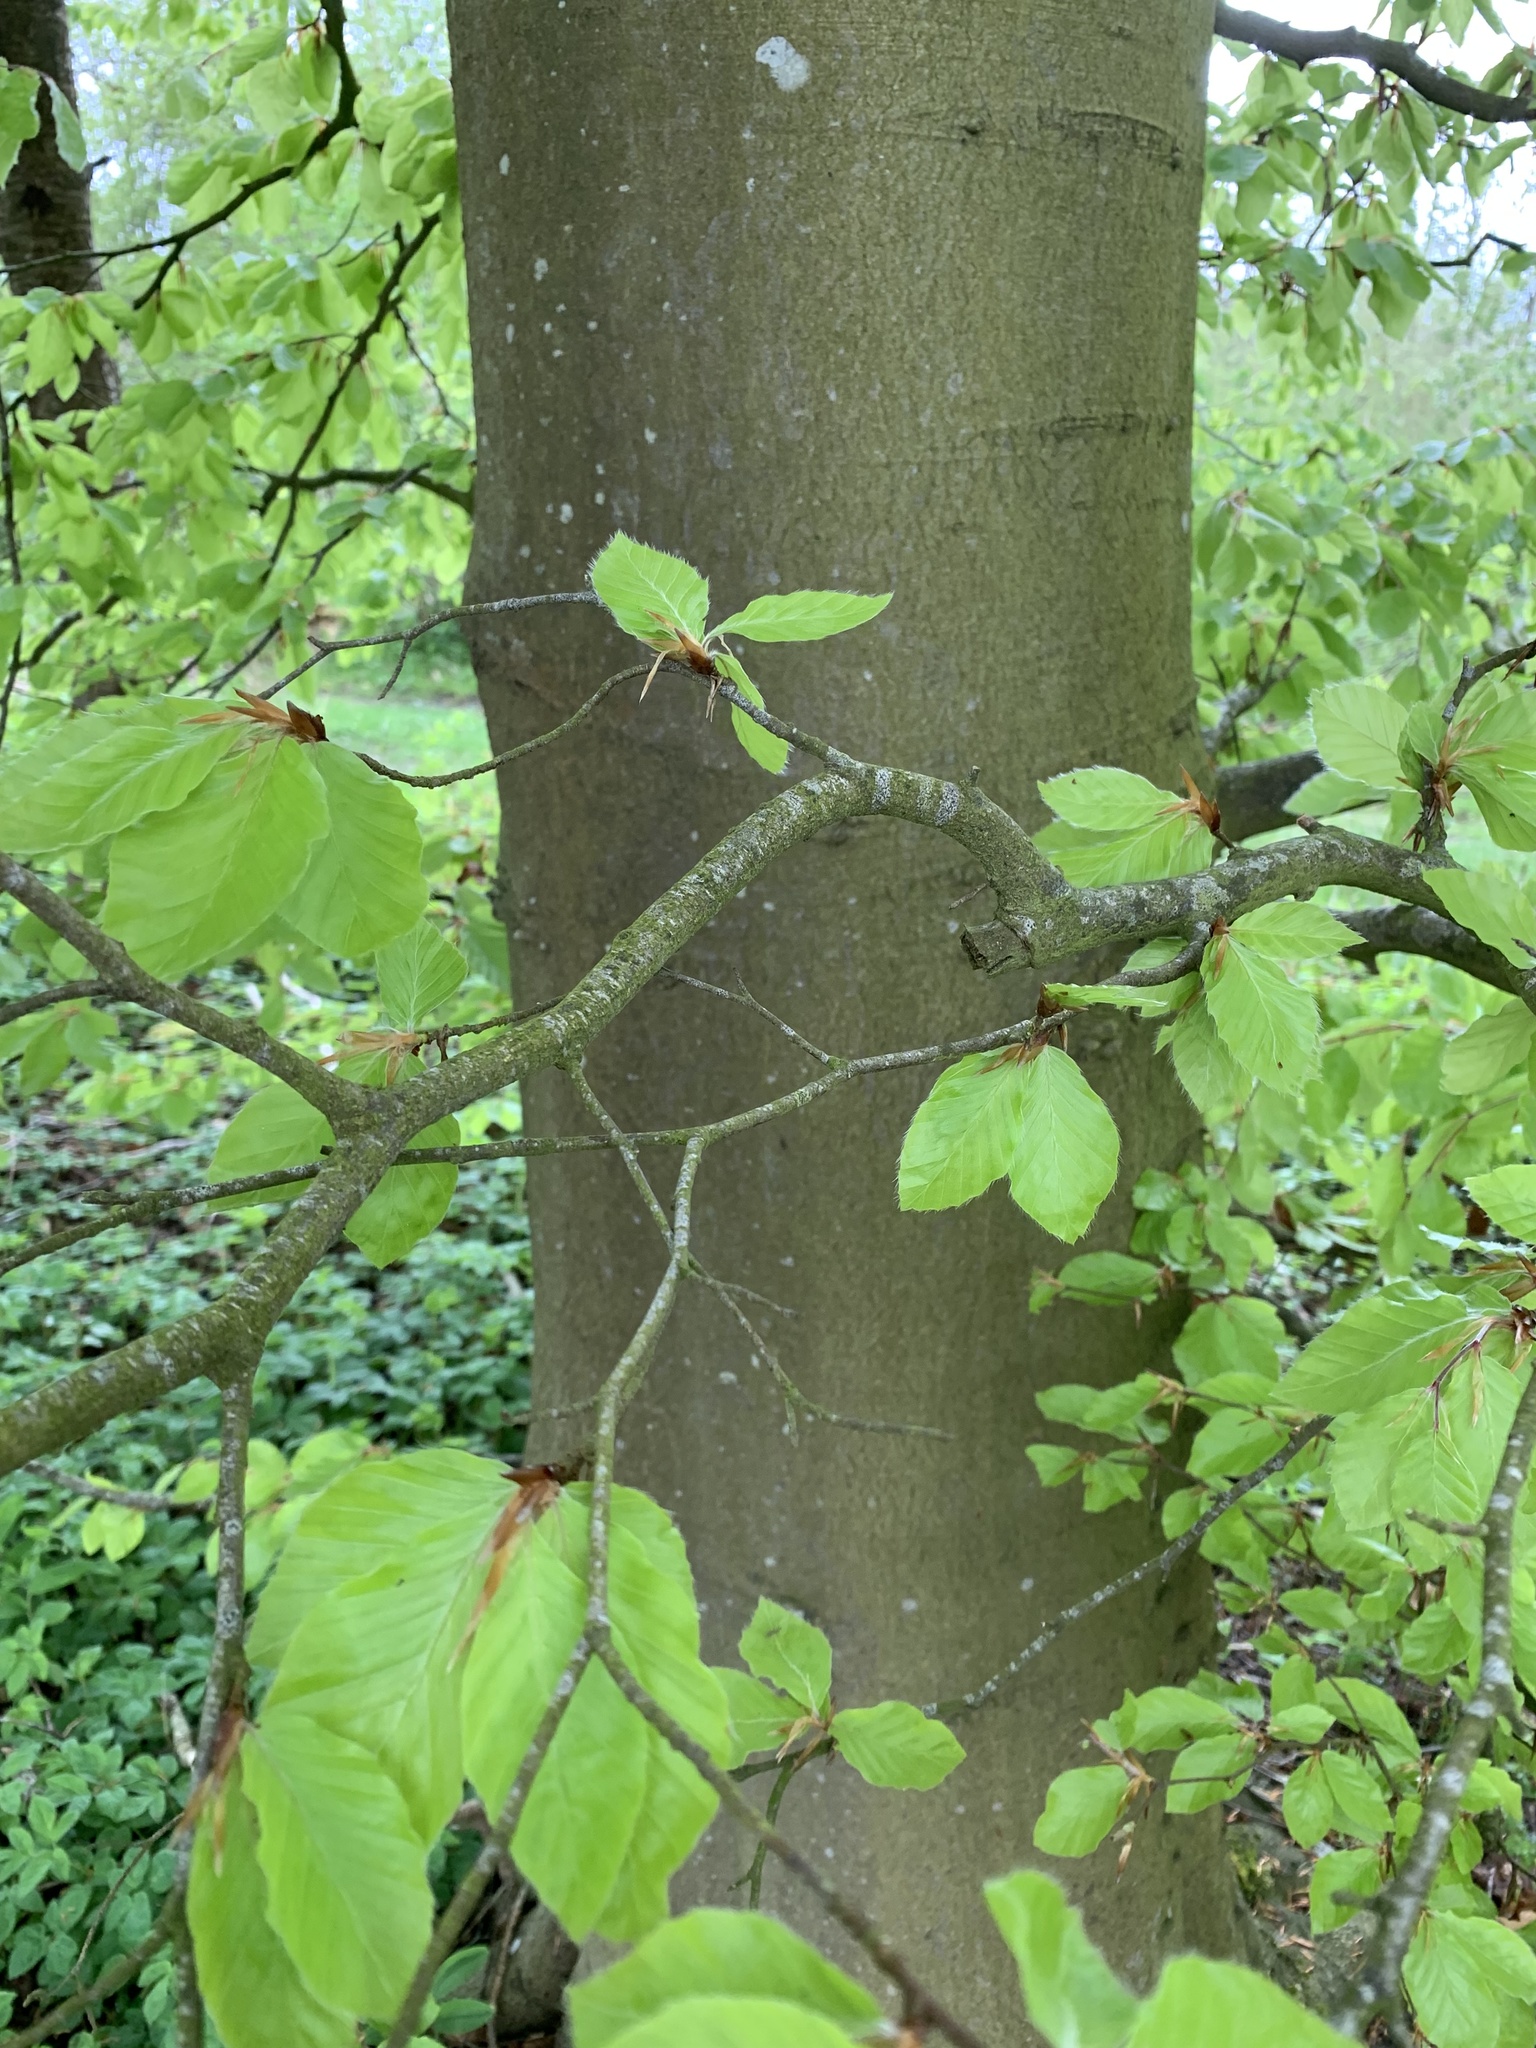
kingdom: Plantae
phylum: Tracheophyta
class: Magnoliopsida
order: Fagales
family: Fagaceae
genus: Fagus
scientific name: Fagus sylvatica
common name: Beech
